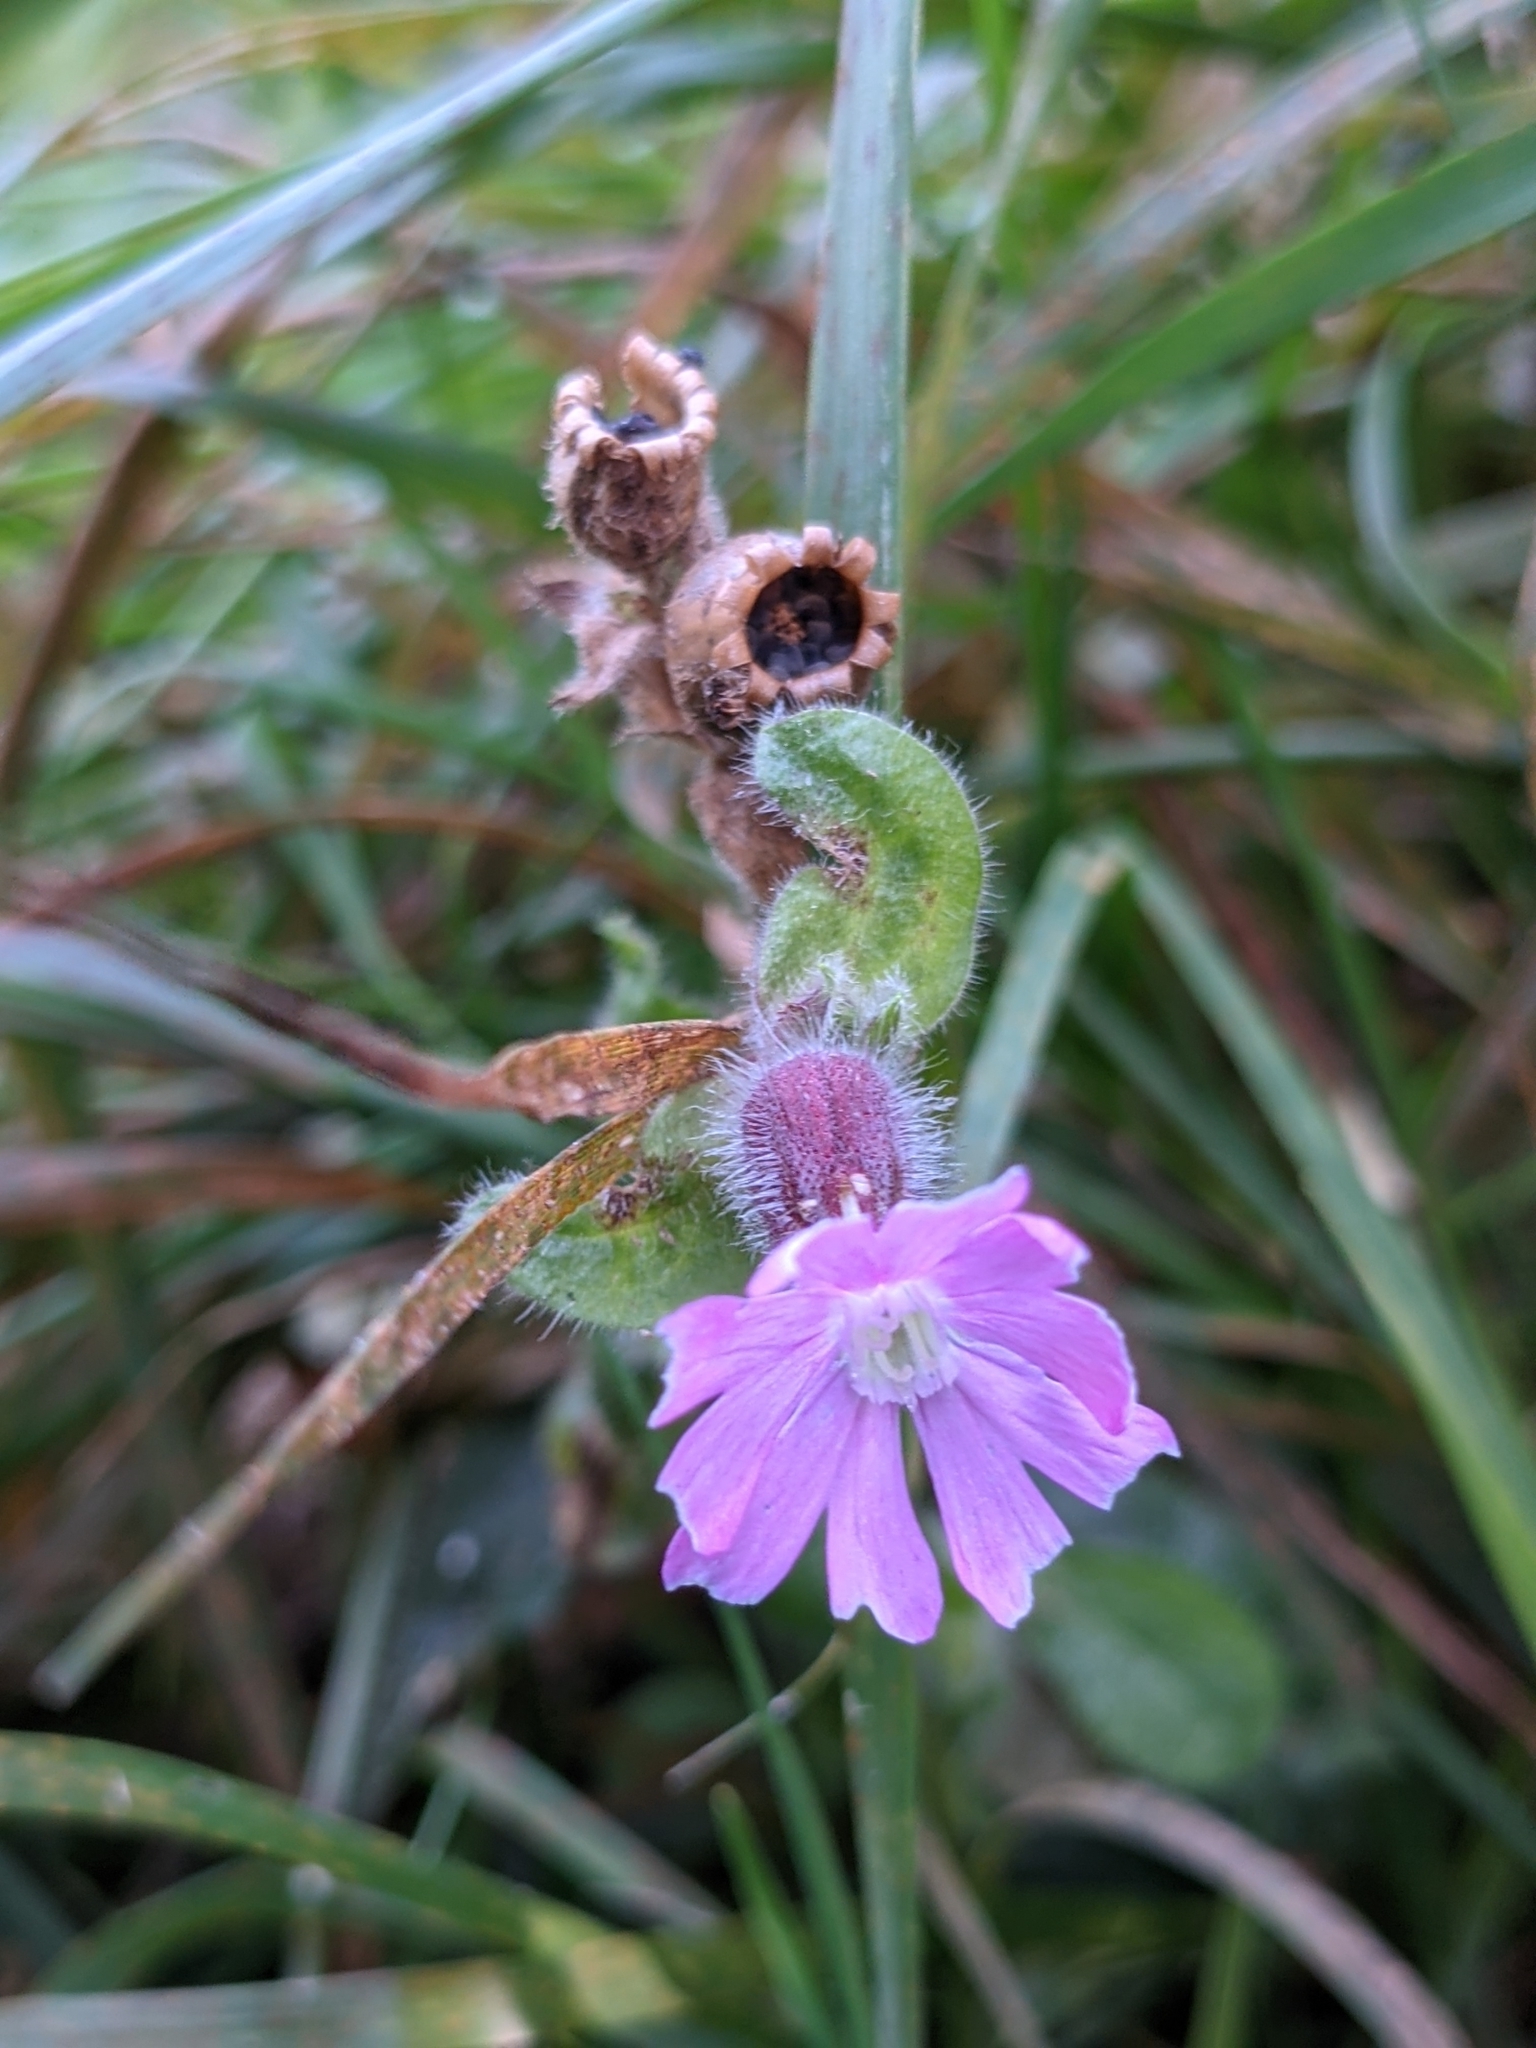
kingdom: Plantae
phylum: Tracheophyta
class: Magnoliopsida
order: Caryophyllales
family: Caryophyllaceae
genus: Silene
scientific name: Silene dioica
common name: Red campion
